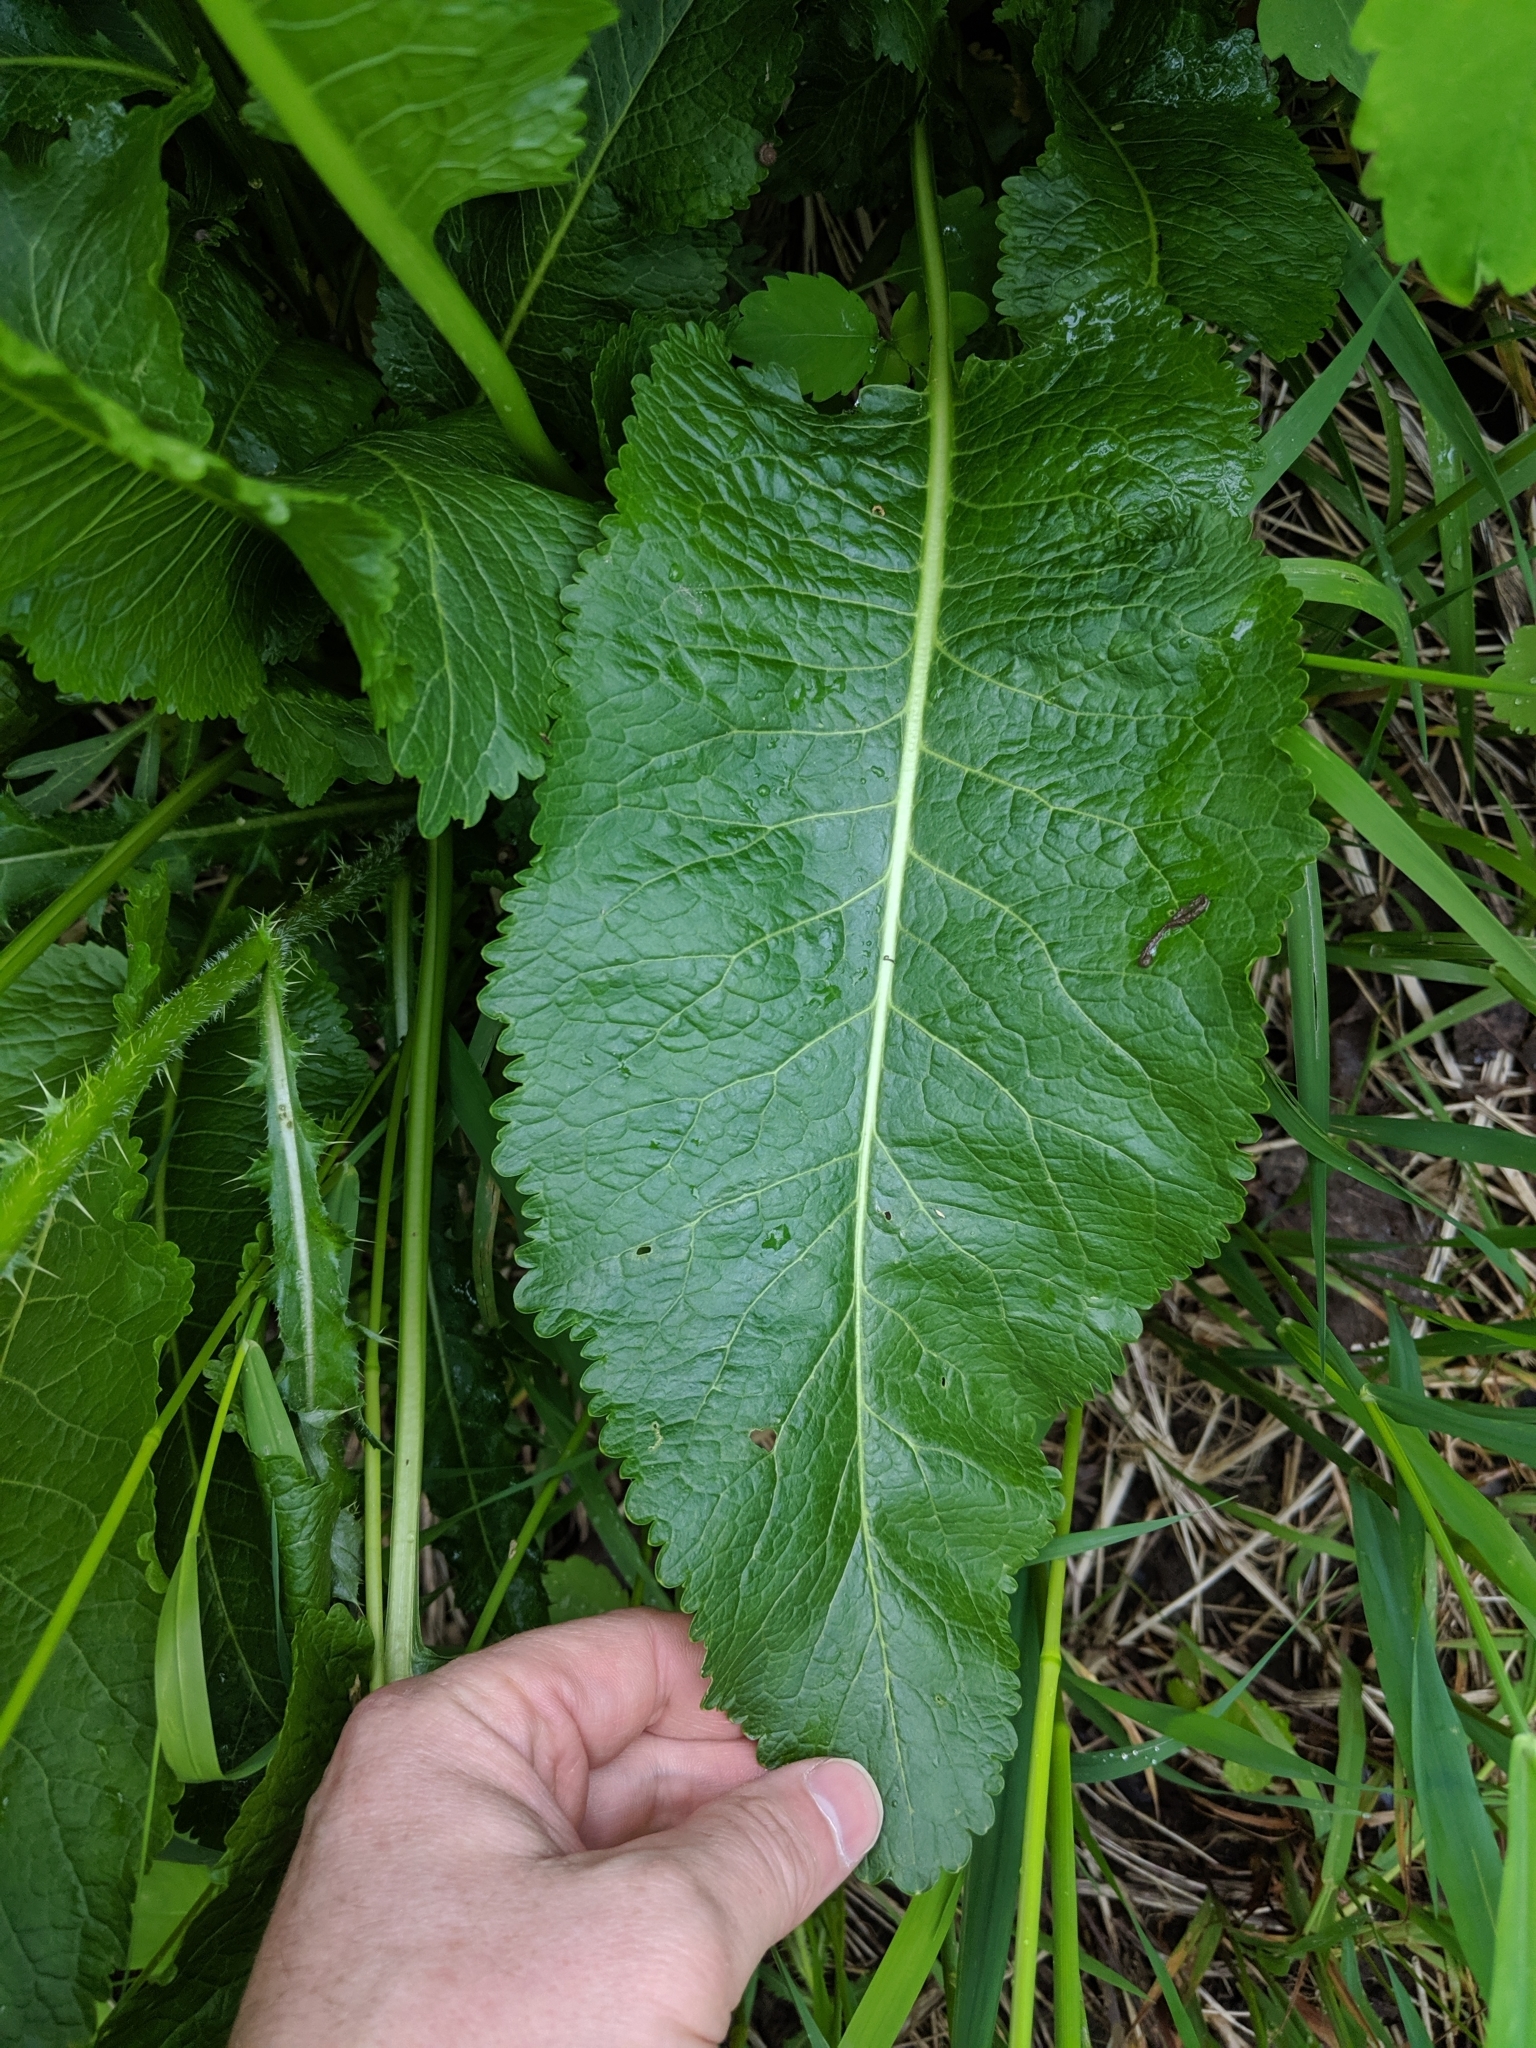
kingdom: Plantae
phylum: Tracheophyta
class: Magnoliopsida
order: Brassicales
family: Brassicaceae
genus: Armoracia
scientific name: Armoracia rusticana
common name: Horseradish
